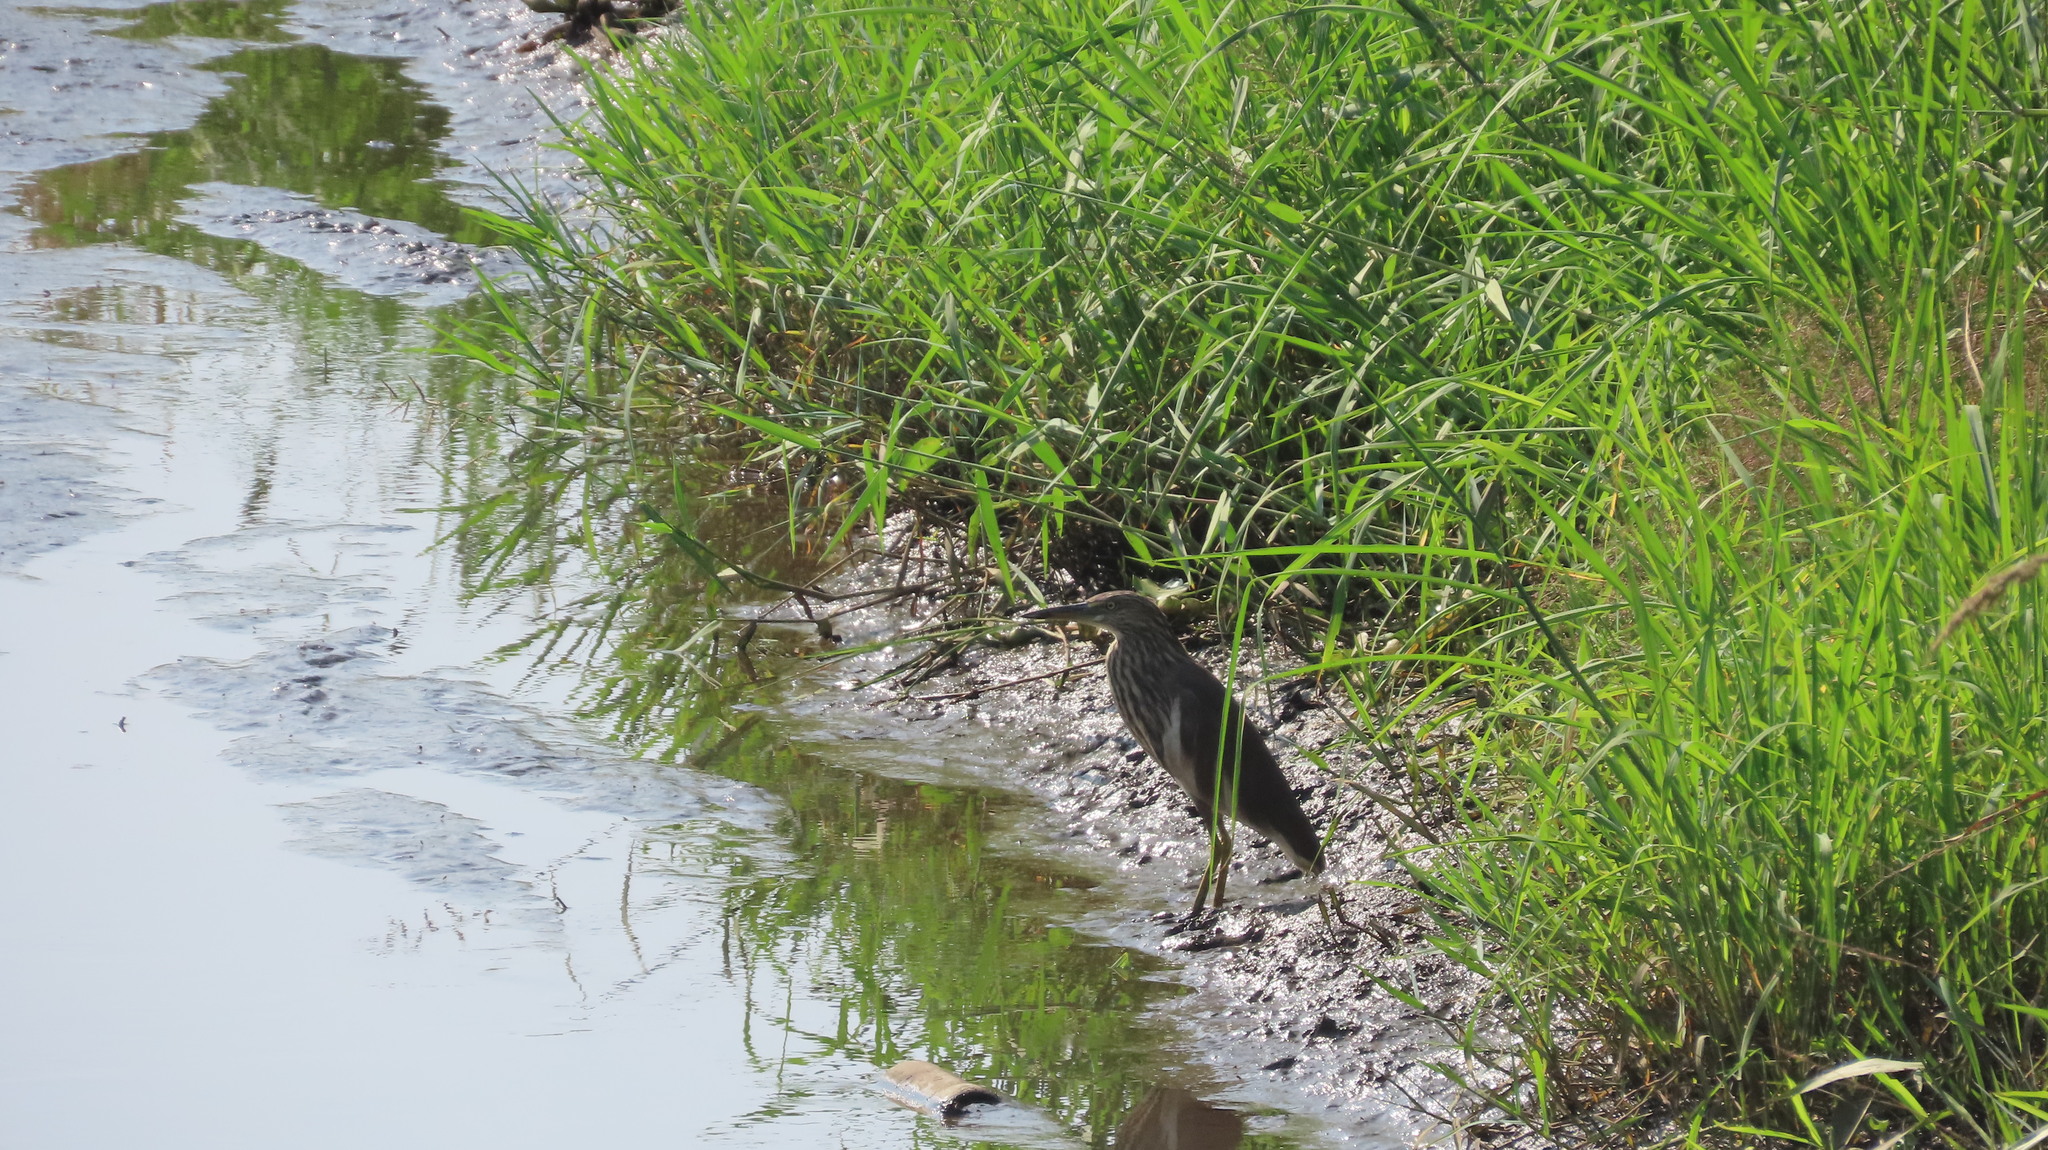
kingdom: Animalia
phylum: Chordata
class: Aves
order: Pelecaniformes
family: Ardeidae
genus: Ardeola
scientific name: Ardeola grayii
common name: Indian pond heron
